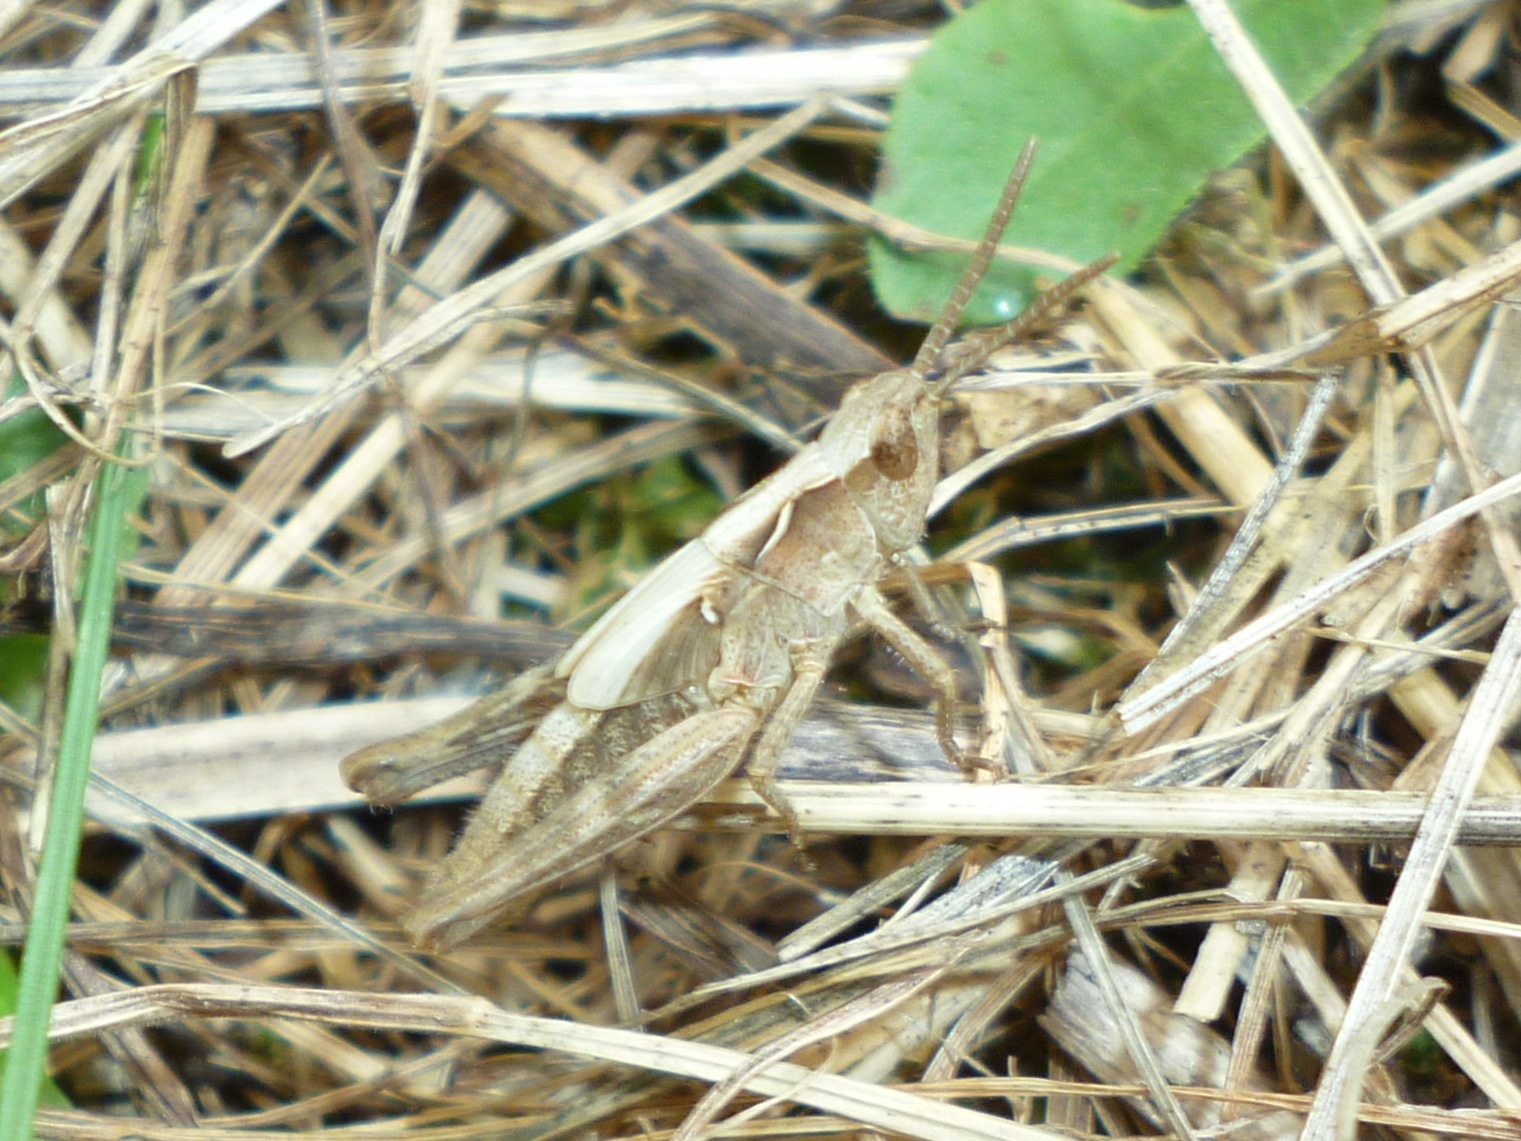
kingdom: Animalia
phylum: Arthropoda
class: Insecta
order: Orthoptera
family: Acrididae
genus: Chorthippus
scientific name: Chorthippus brunneus
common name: Field grasshopper
